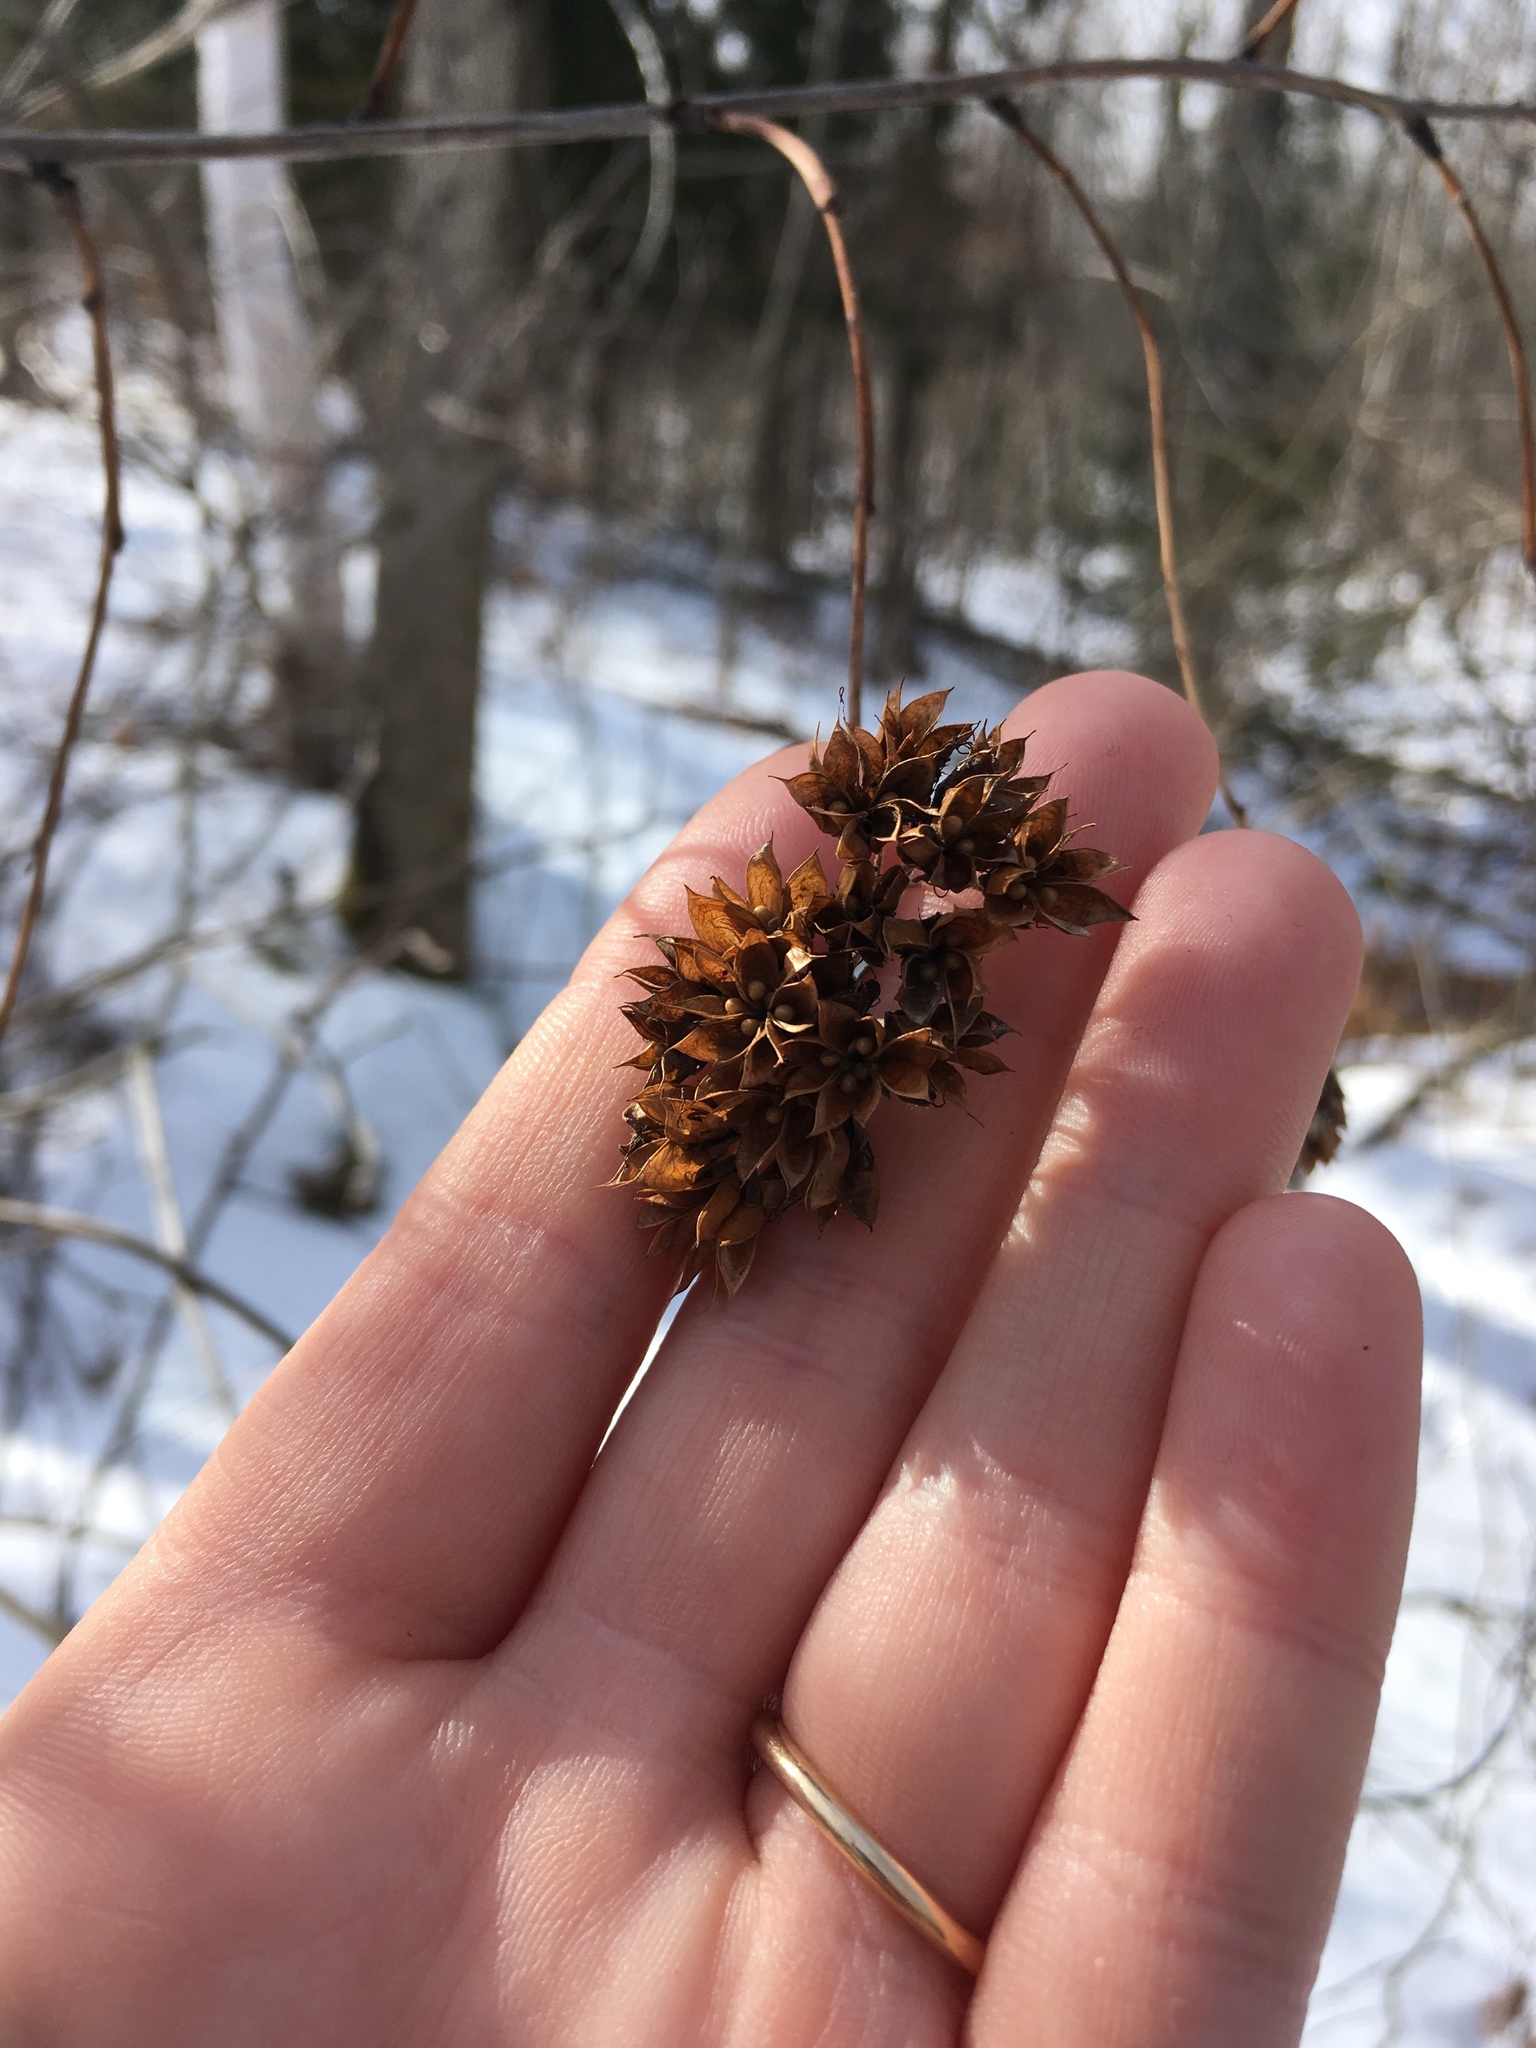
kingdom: Plantae
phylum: Tracheophyta
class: Magnoliopsida
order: Rosales
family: Rosaceae
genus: Physocarpus
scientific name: Physocarpus opulifolius
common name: Ninebark
